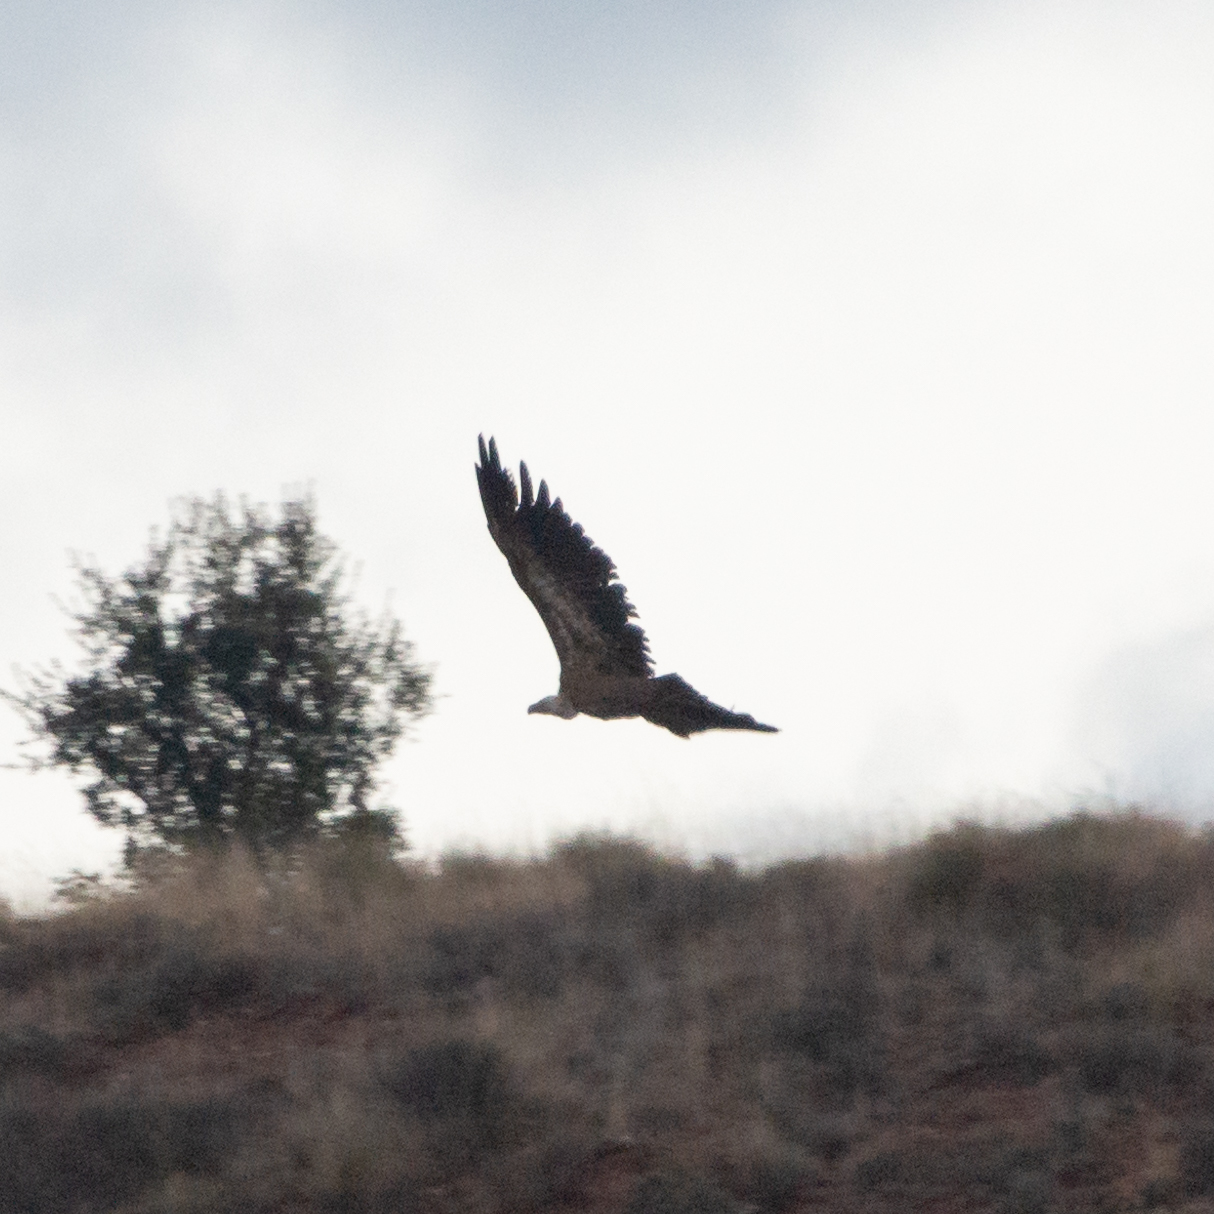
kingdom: Animalia
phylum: Chordata
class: Aves
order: Accipitriformes
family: Accipitridae
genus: Gyps
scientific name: Gyps fulvus
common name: Griffon vulture
